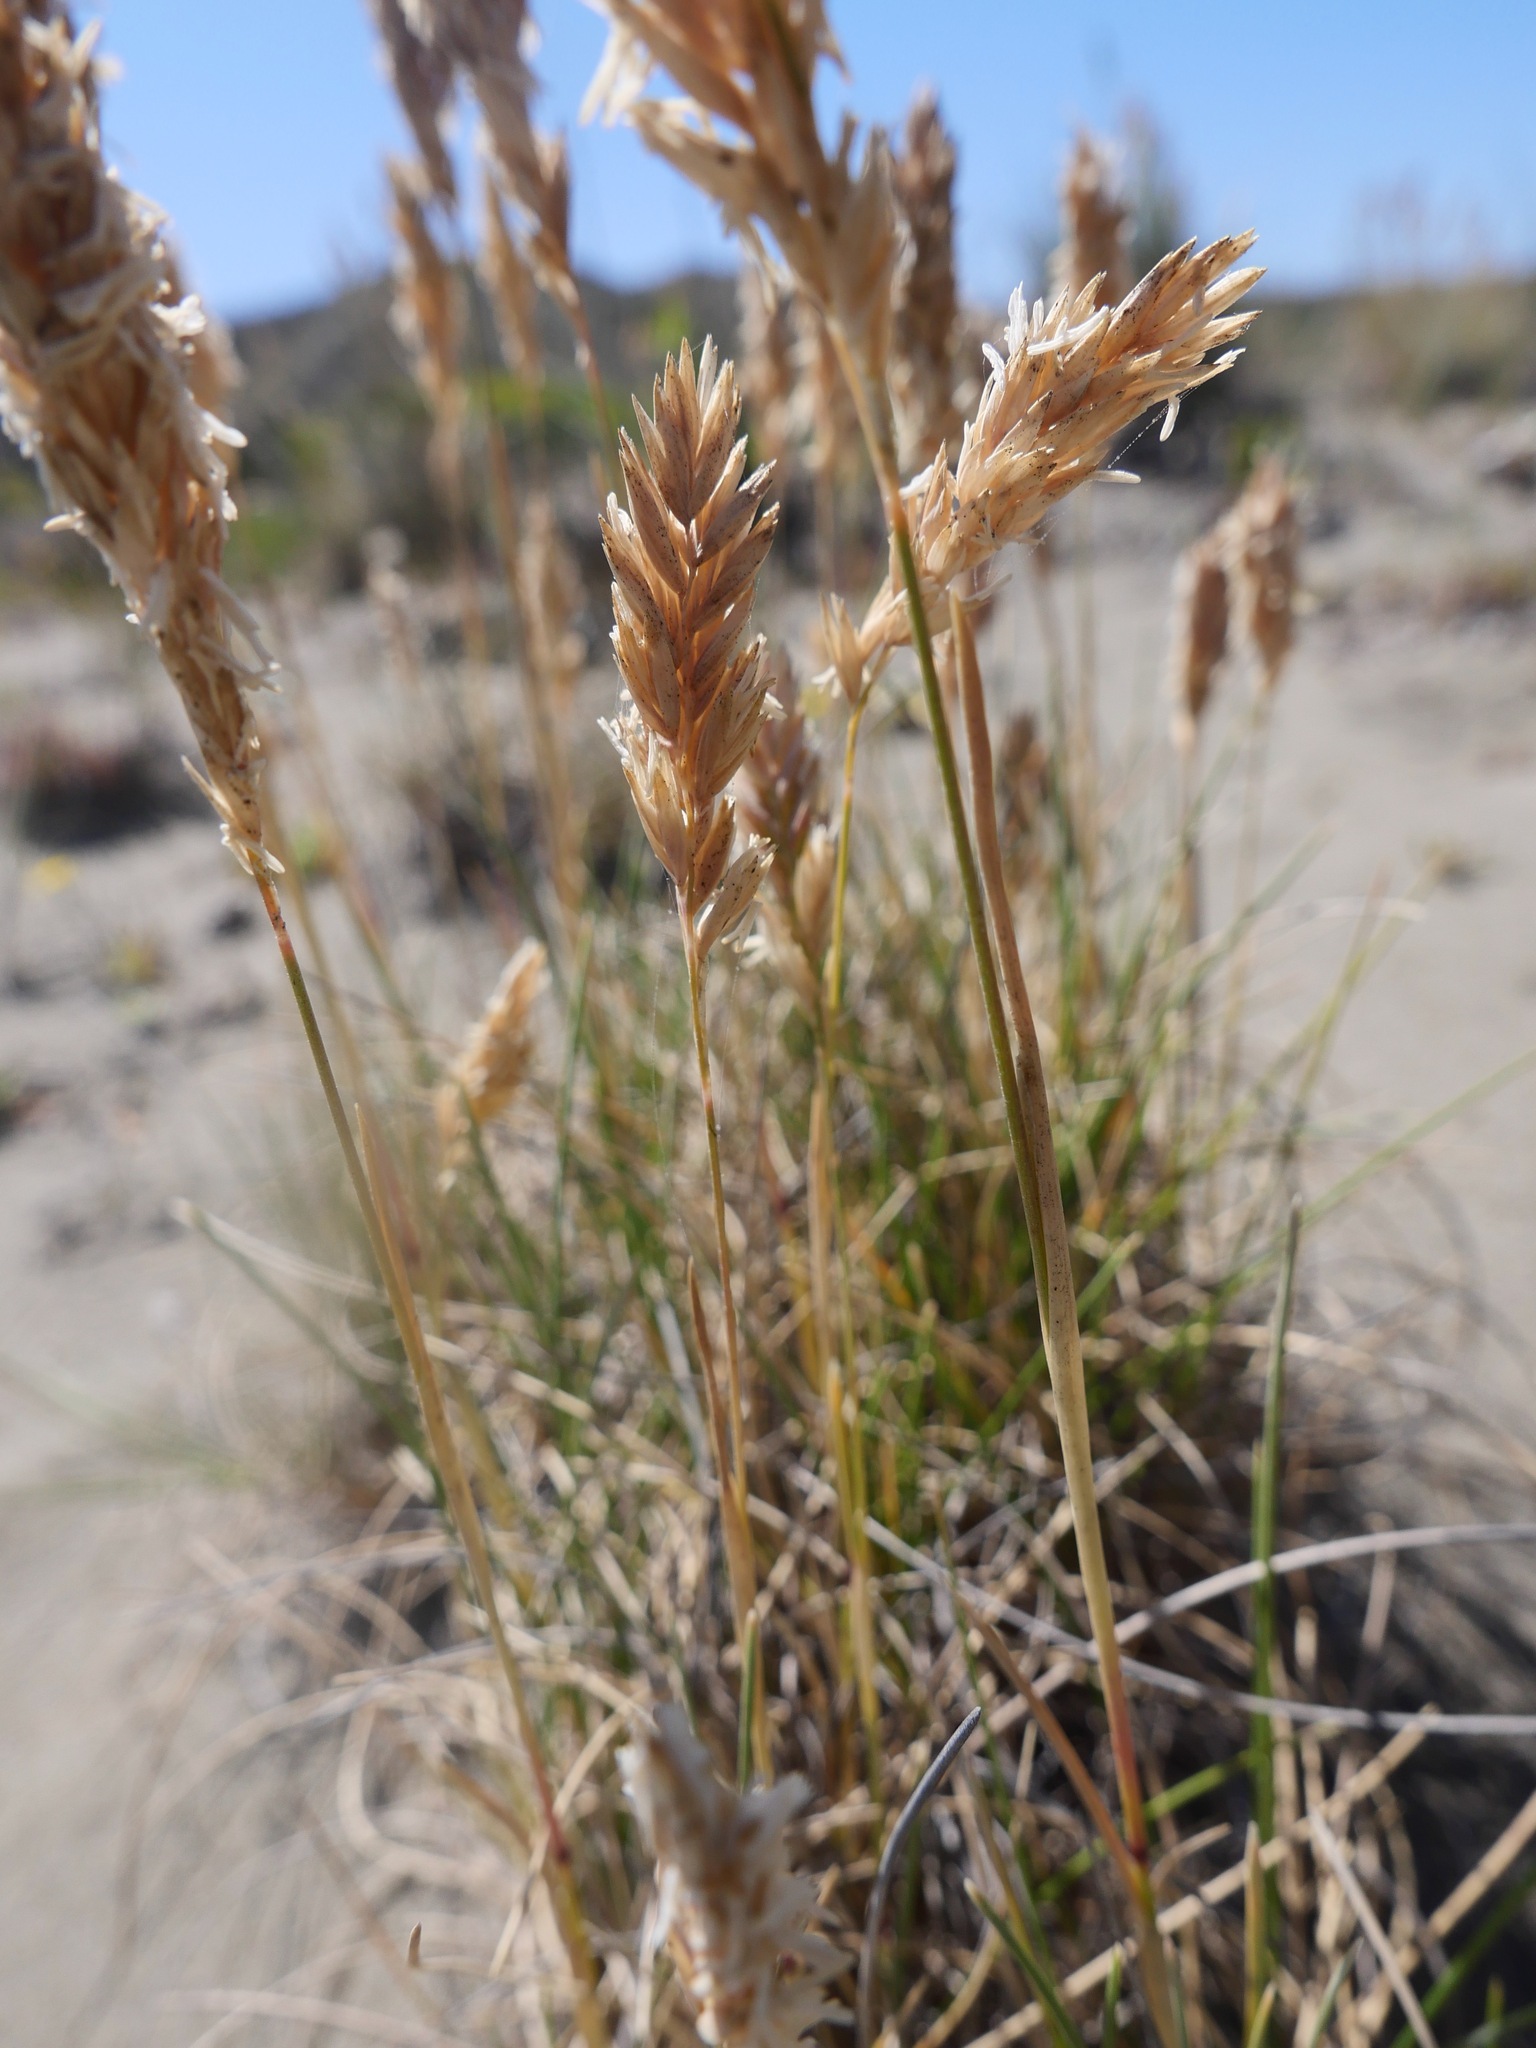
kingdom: Plantae
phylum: Tracheophyta
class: Liliopsida
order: Poales
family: Poaceae
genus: Poa
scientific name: Poa macrantha
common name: Dune bluegrass
